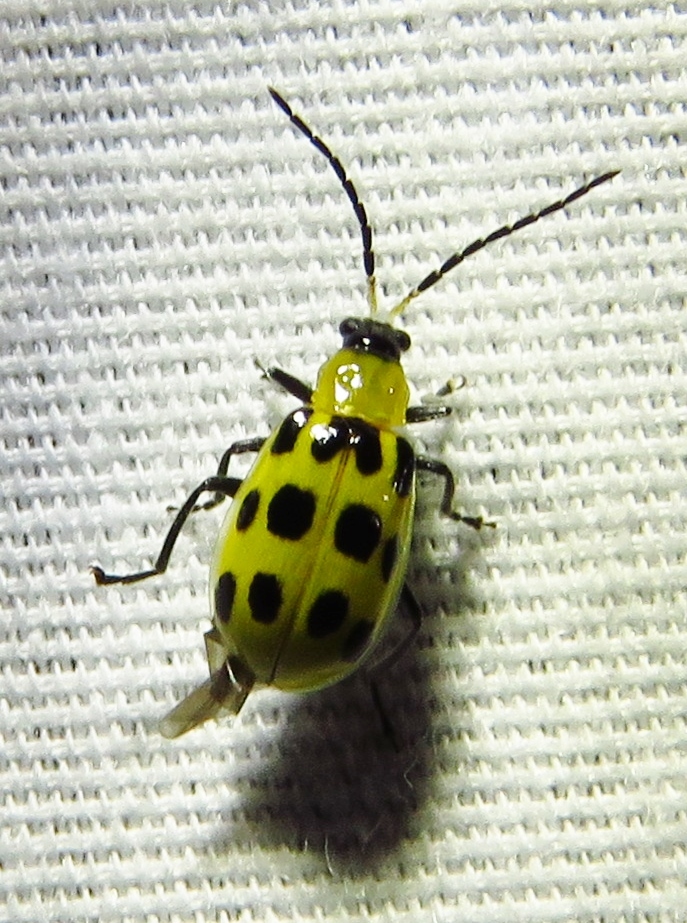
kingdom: Animalia
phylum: Arthropoda
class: Insecta
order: Coleoptera
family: Chrysomelidae
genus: Diabrotica
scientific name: Diabrotica undecimpunctata
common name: Spotted cucumber beetle
